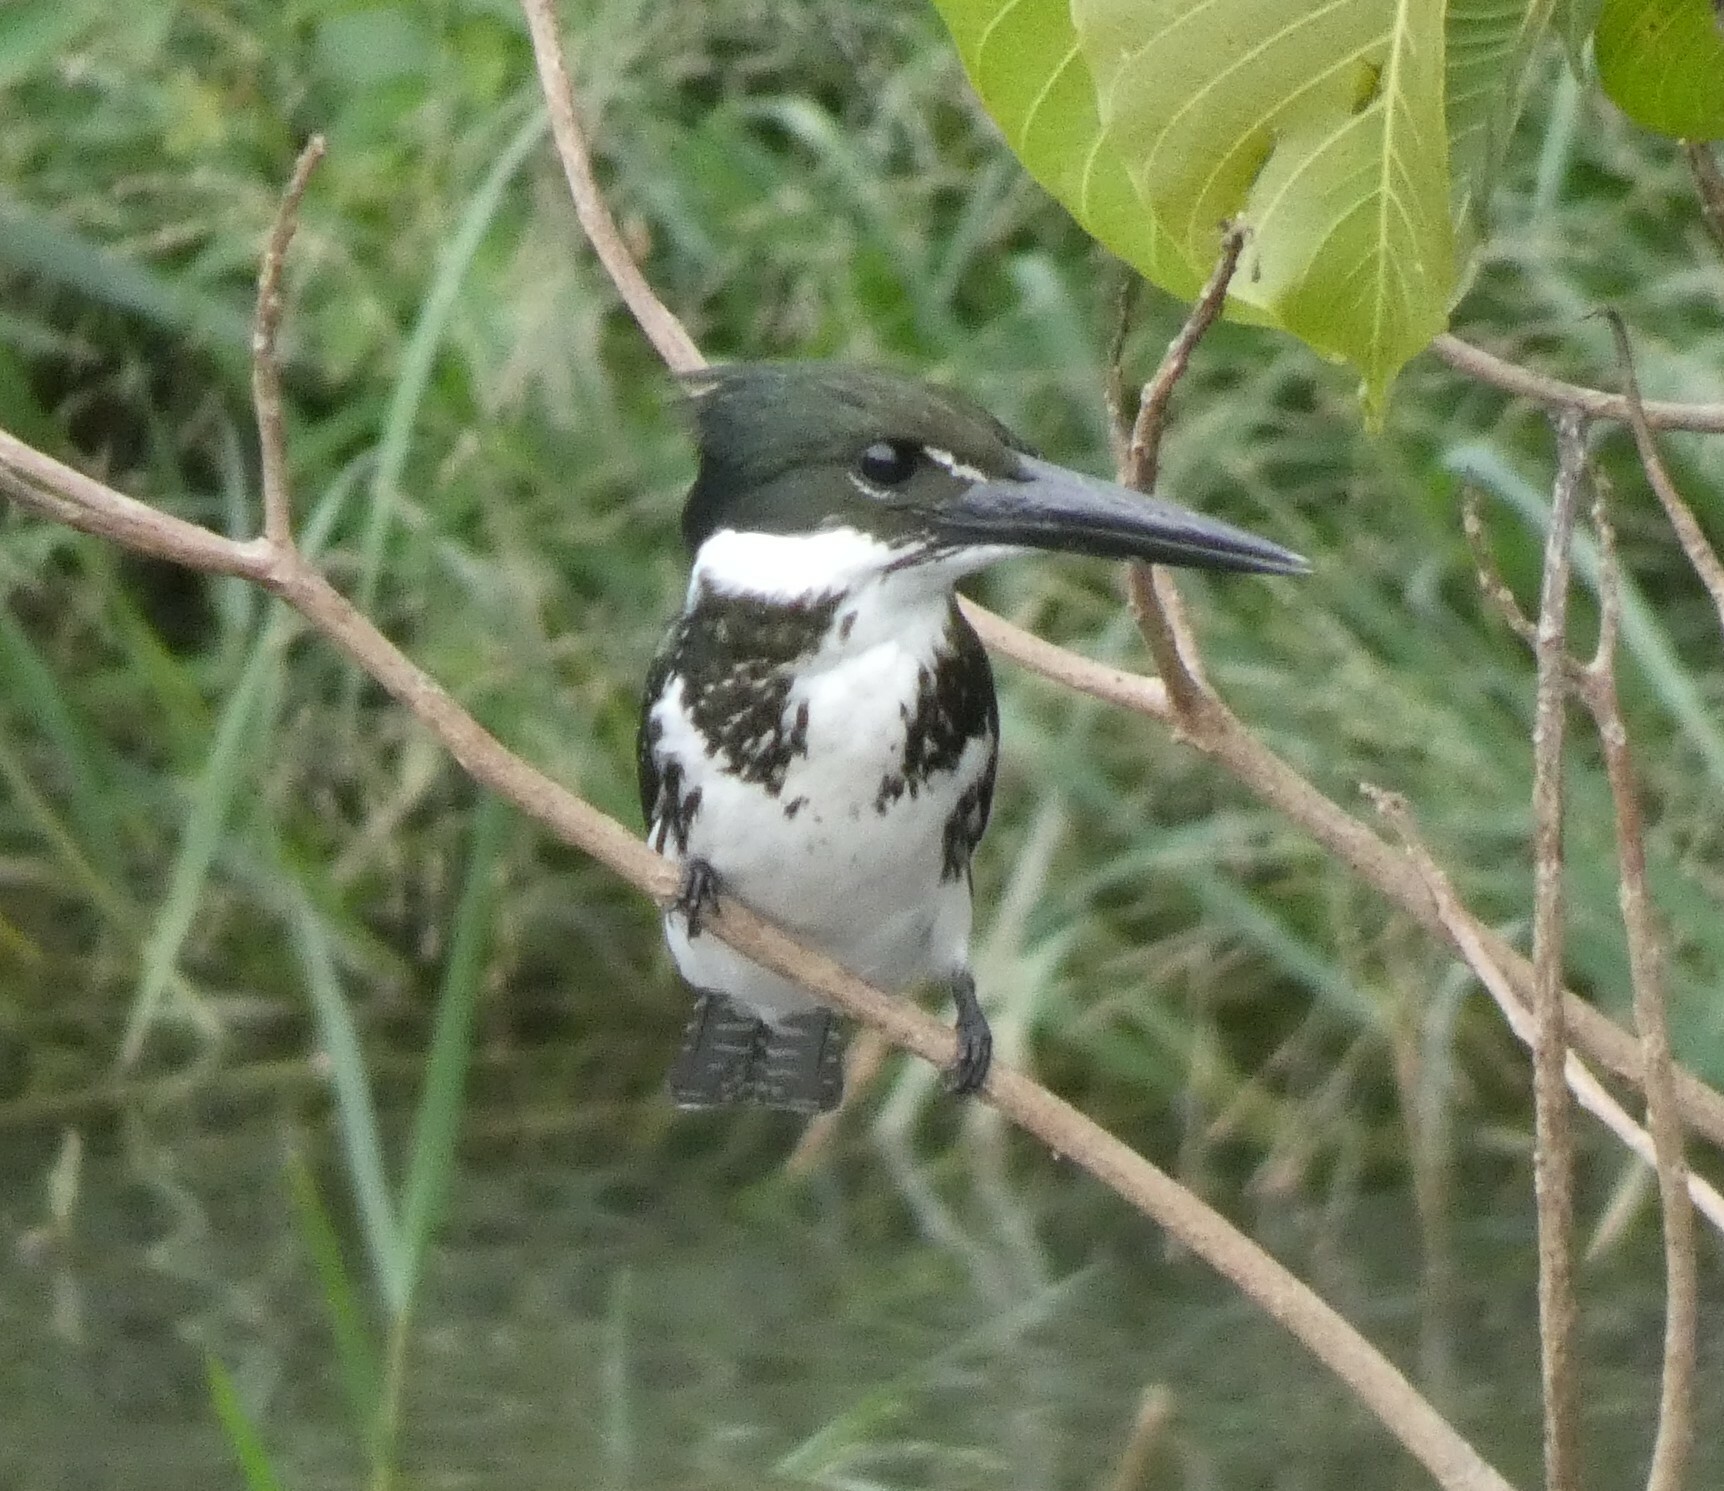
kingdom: Animalia
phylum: Chordata
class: Aves
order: Coraciiformes
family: Alcedinidae
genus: Chloroceryle
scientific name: Chloroceryle amazona
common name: Amazon kingfisher
